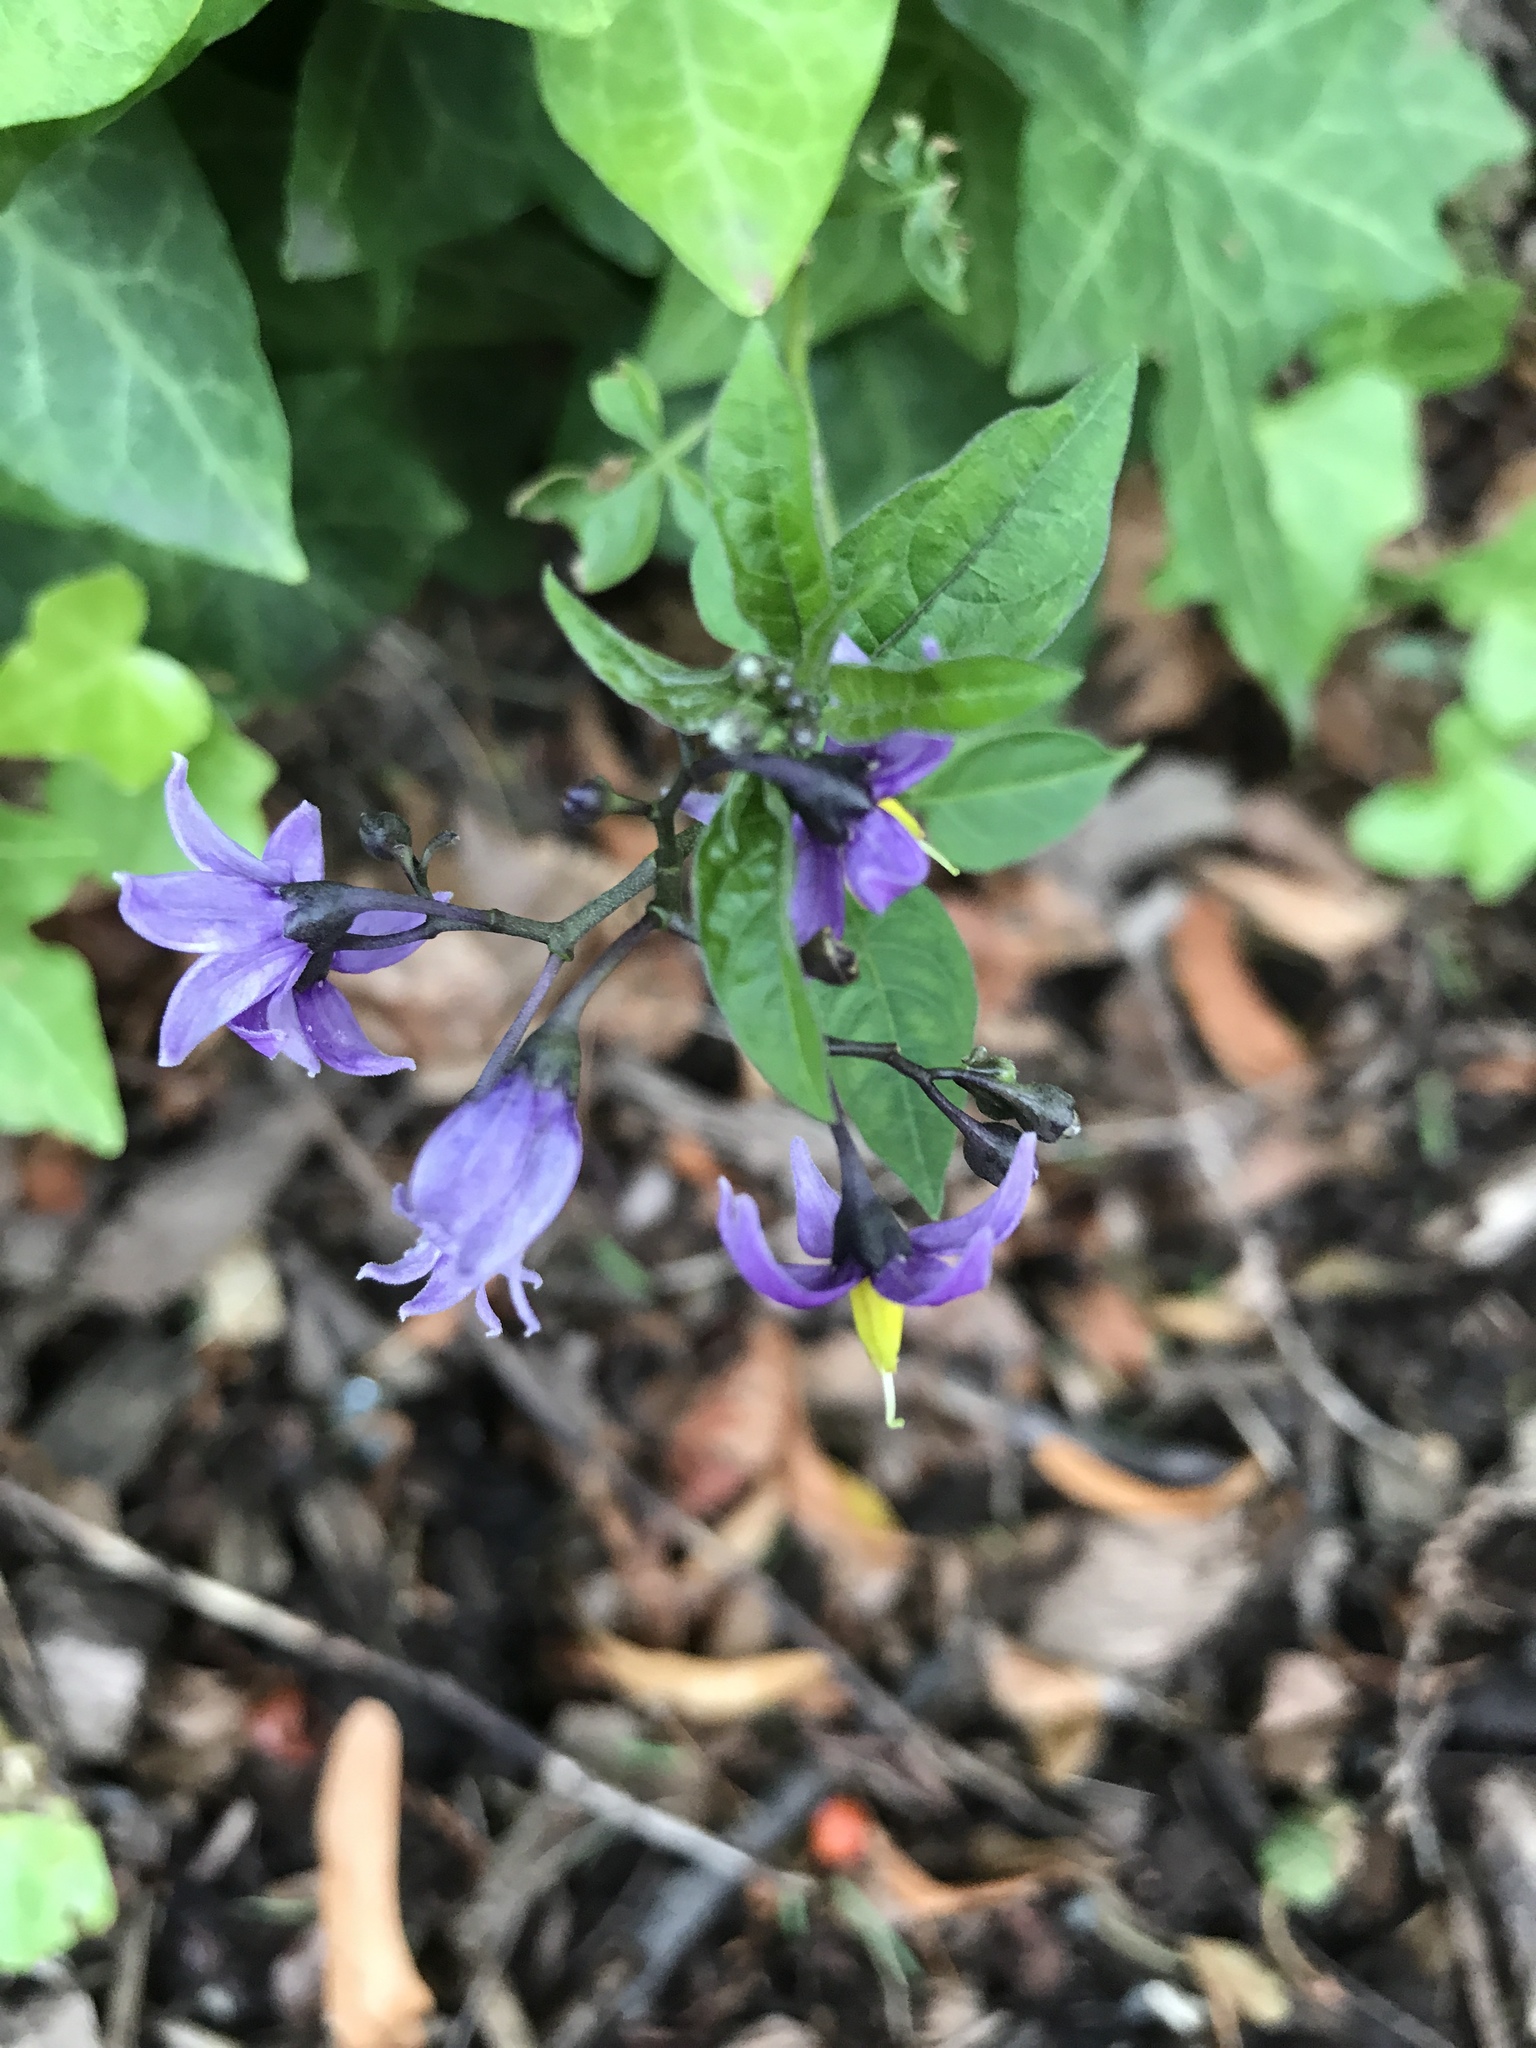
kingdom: Plantae
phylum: Tracheophyta
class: Magnoliopsida
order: Solanales
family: Solanaceae
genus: Solanum
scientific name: Solanum dulcamara
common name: Climbing nightshade
